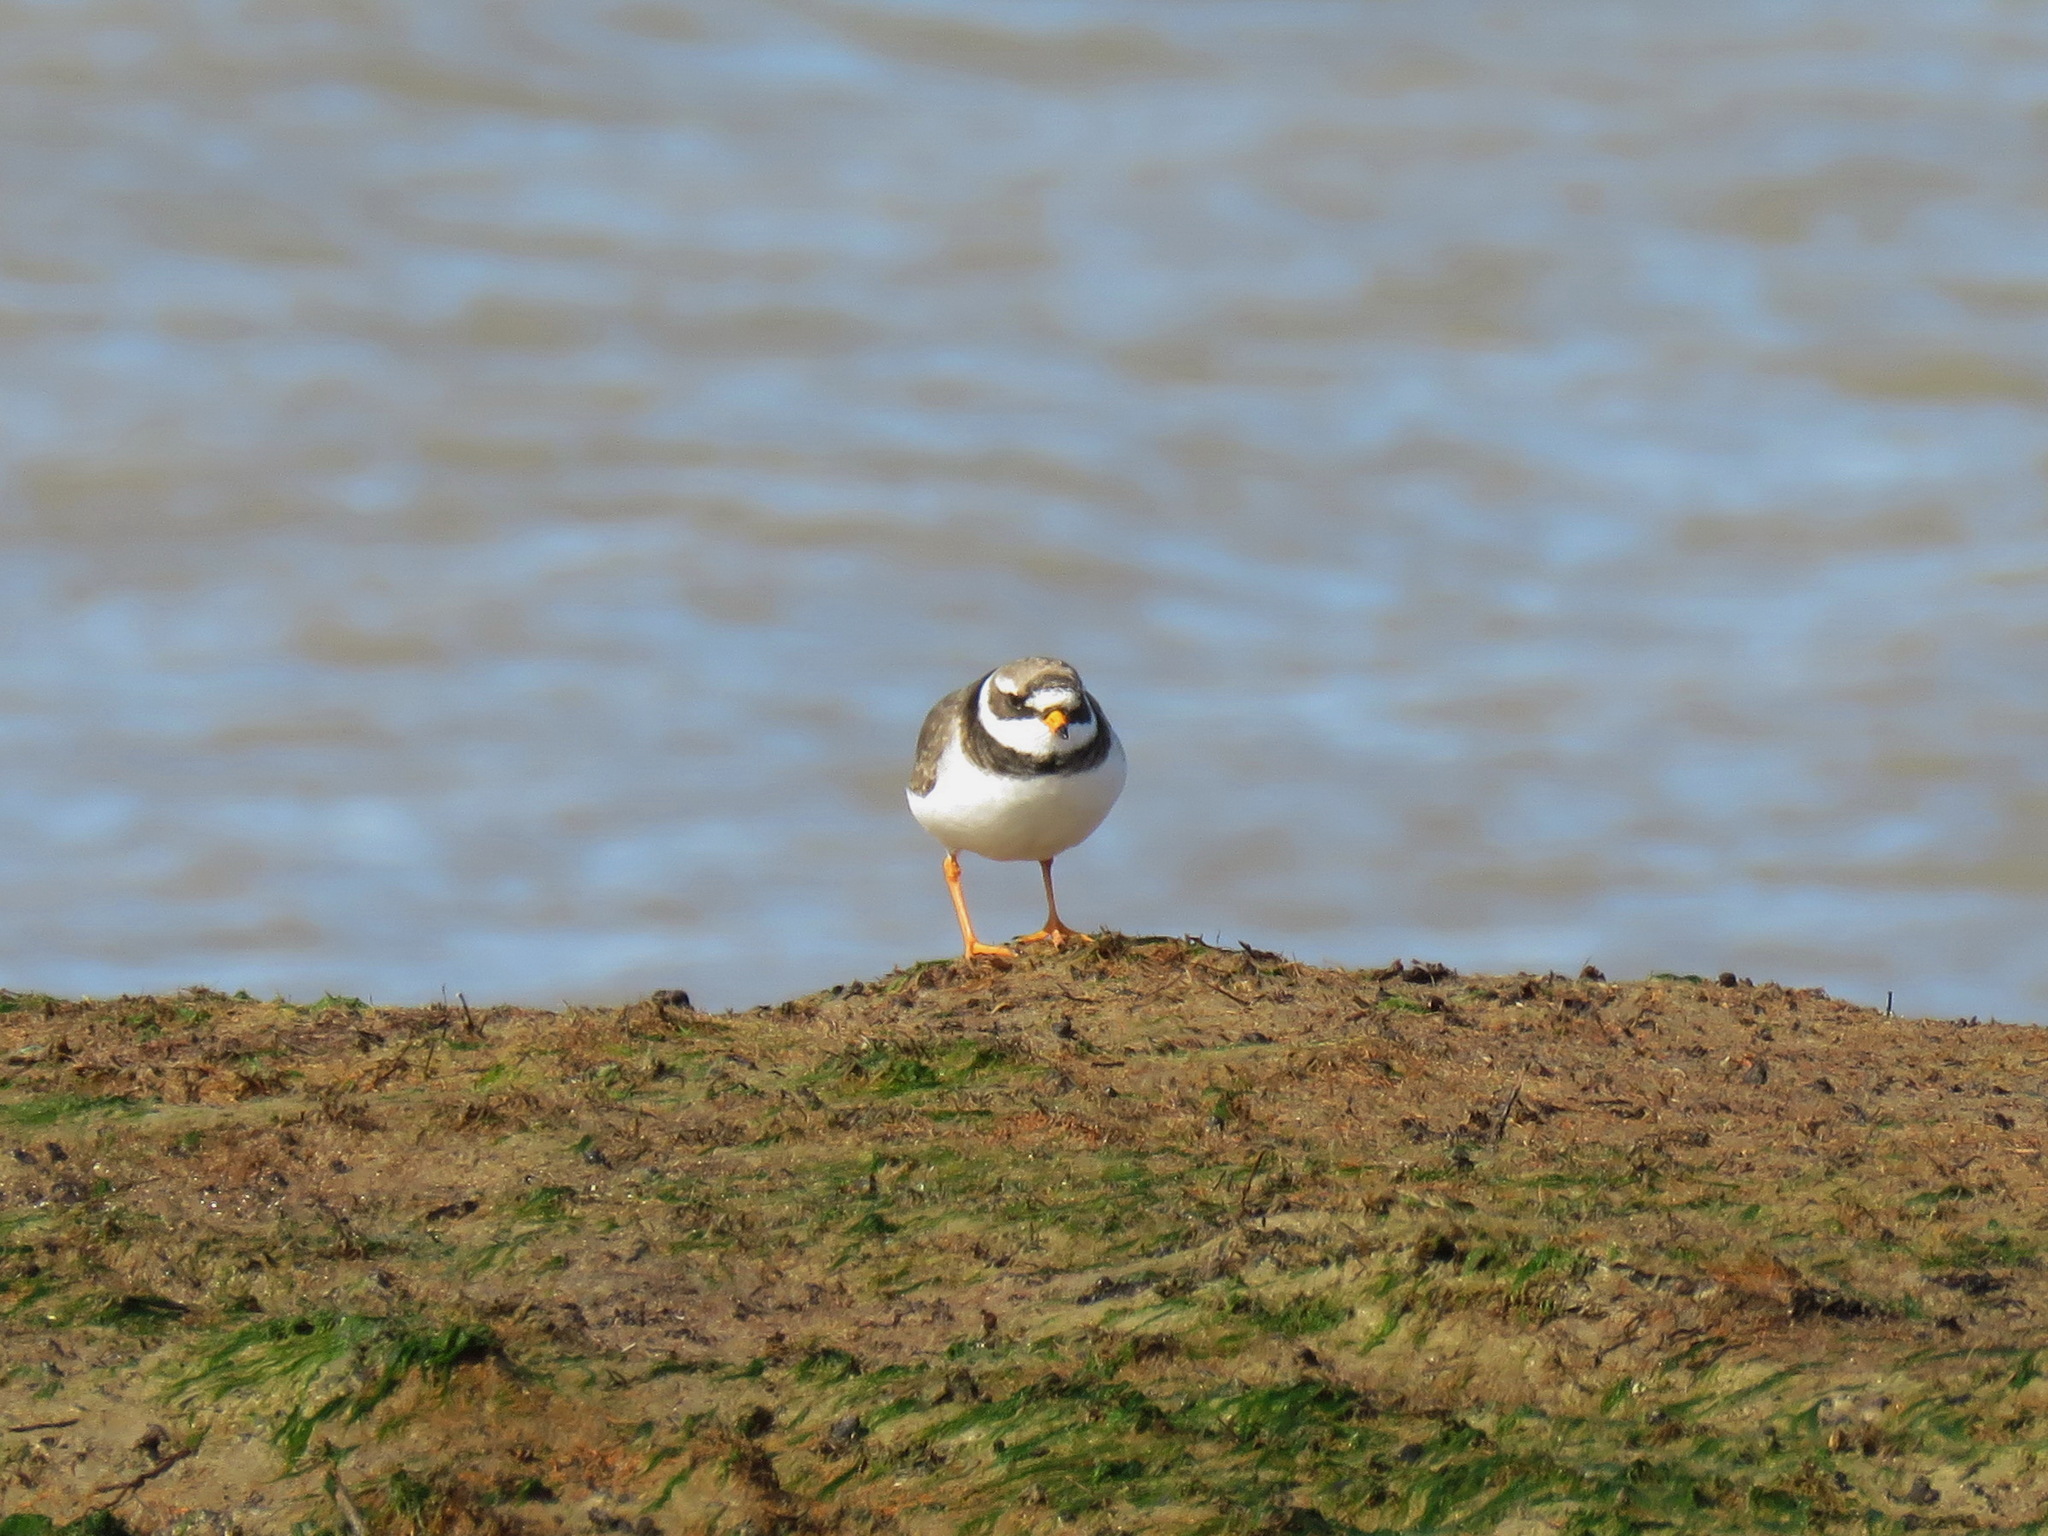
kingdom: Animalia
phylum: Chordata
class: Aves
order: Charadriiformes
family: Charadriidae
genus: Charadrius
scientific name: Charadrius hiaticula
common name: Common ringed plover
